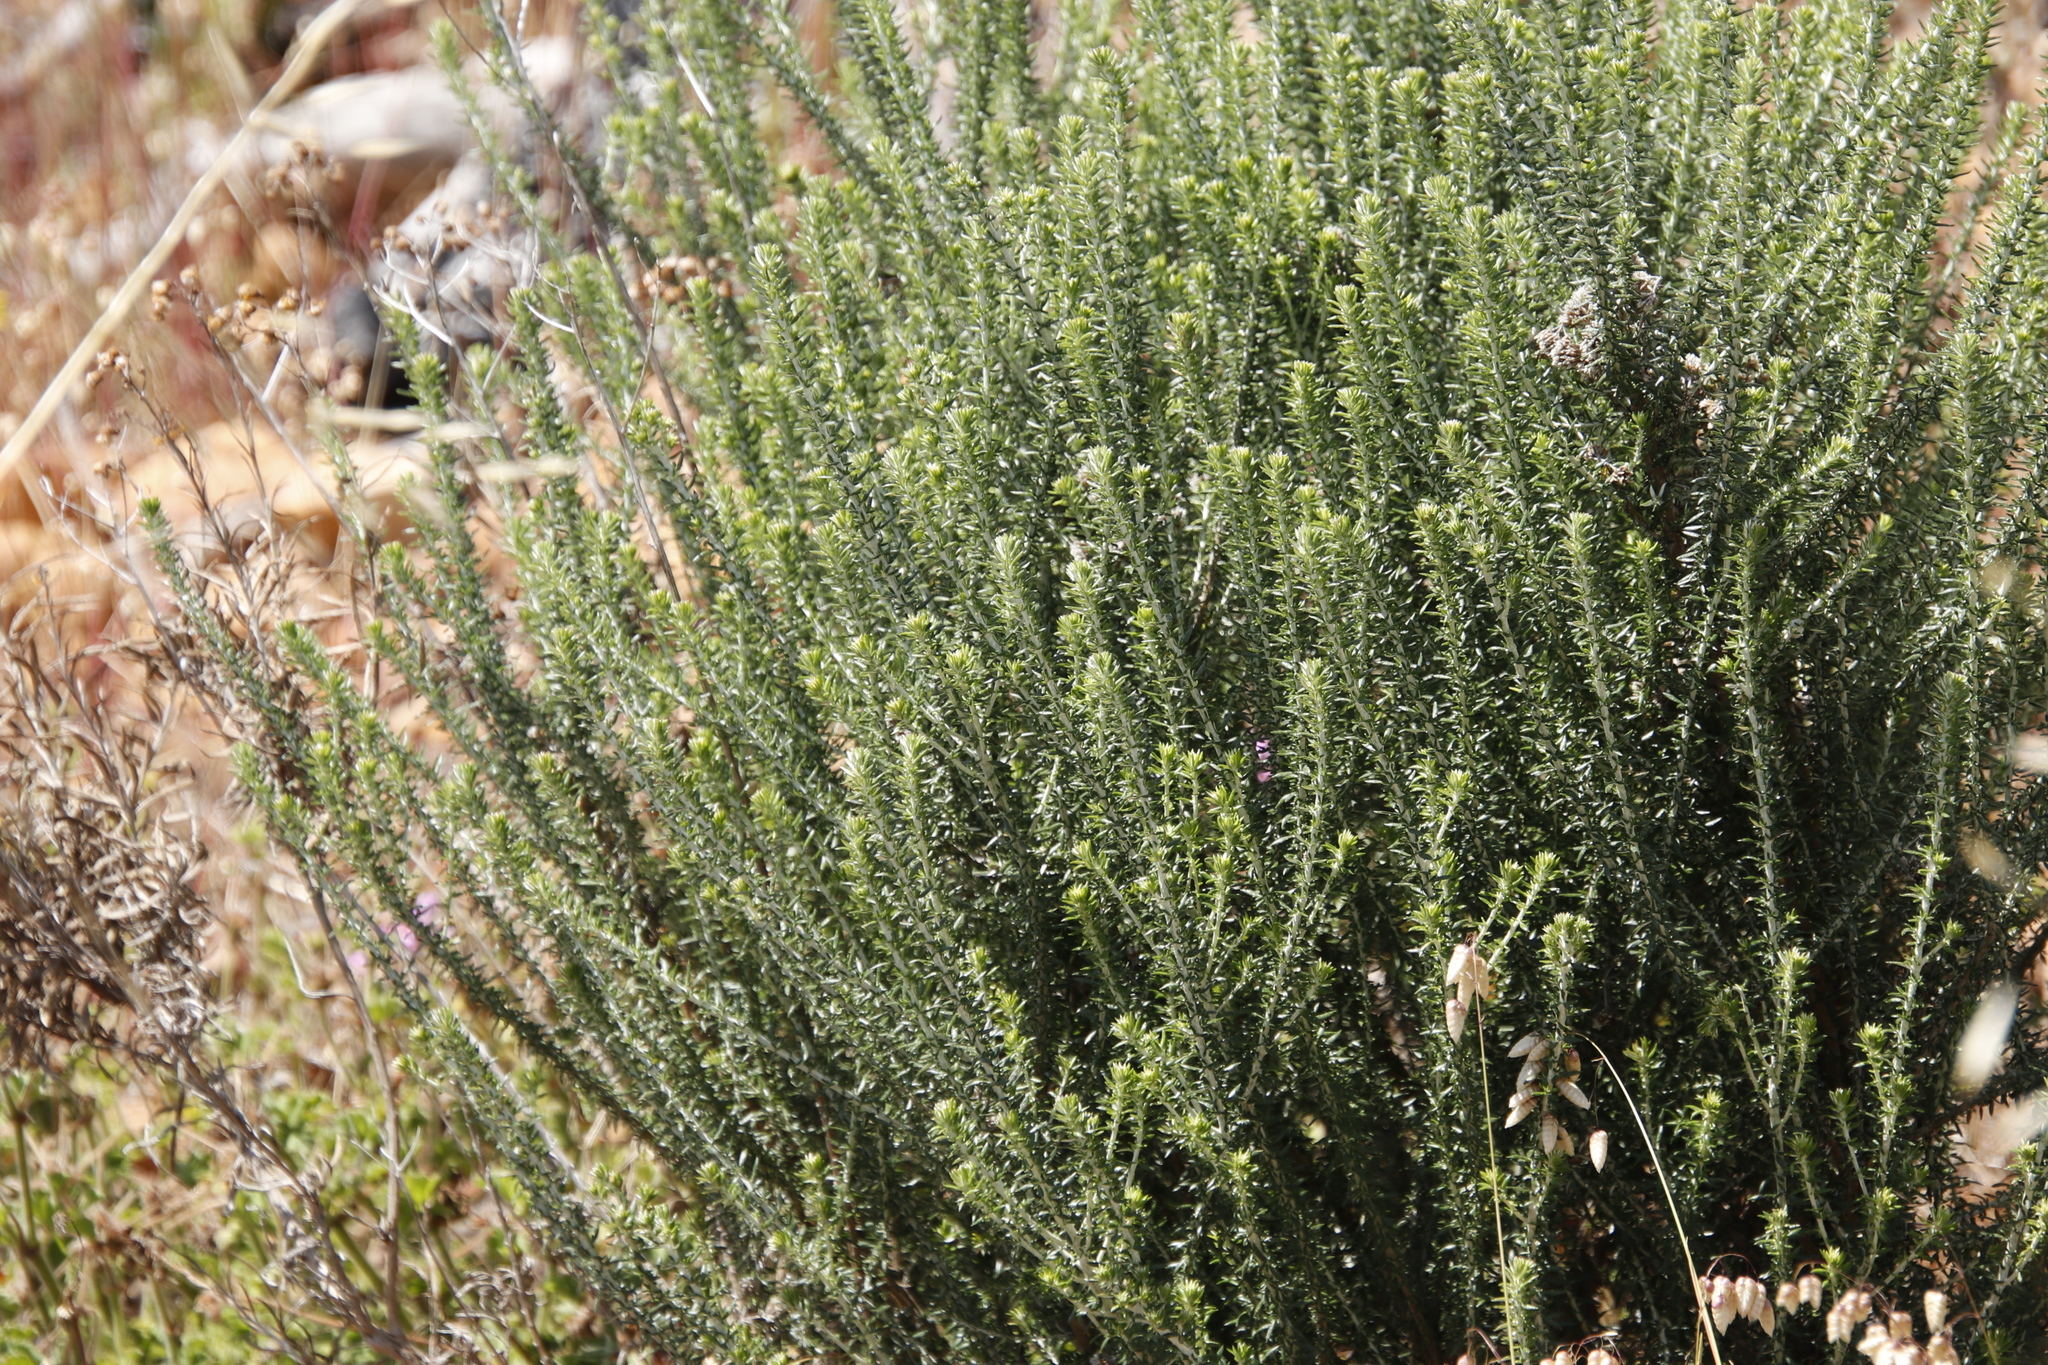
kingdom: Plantae
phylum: Tracheophyta
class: Magnoliopsida
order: Asterales
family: Asteraceae
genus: Metalasia
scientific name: Metalasia densa
